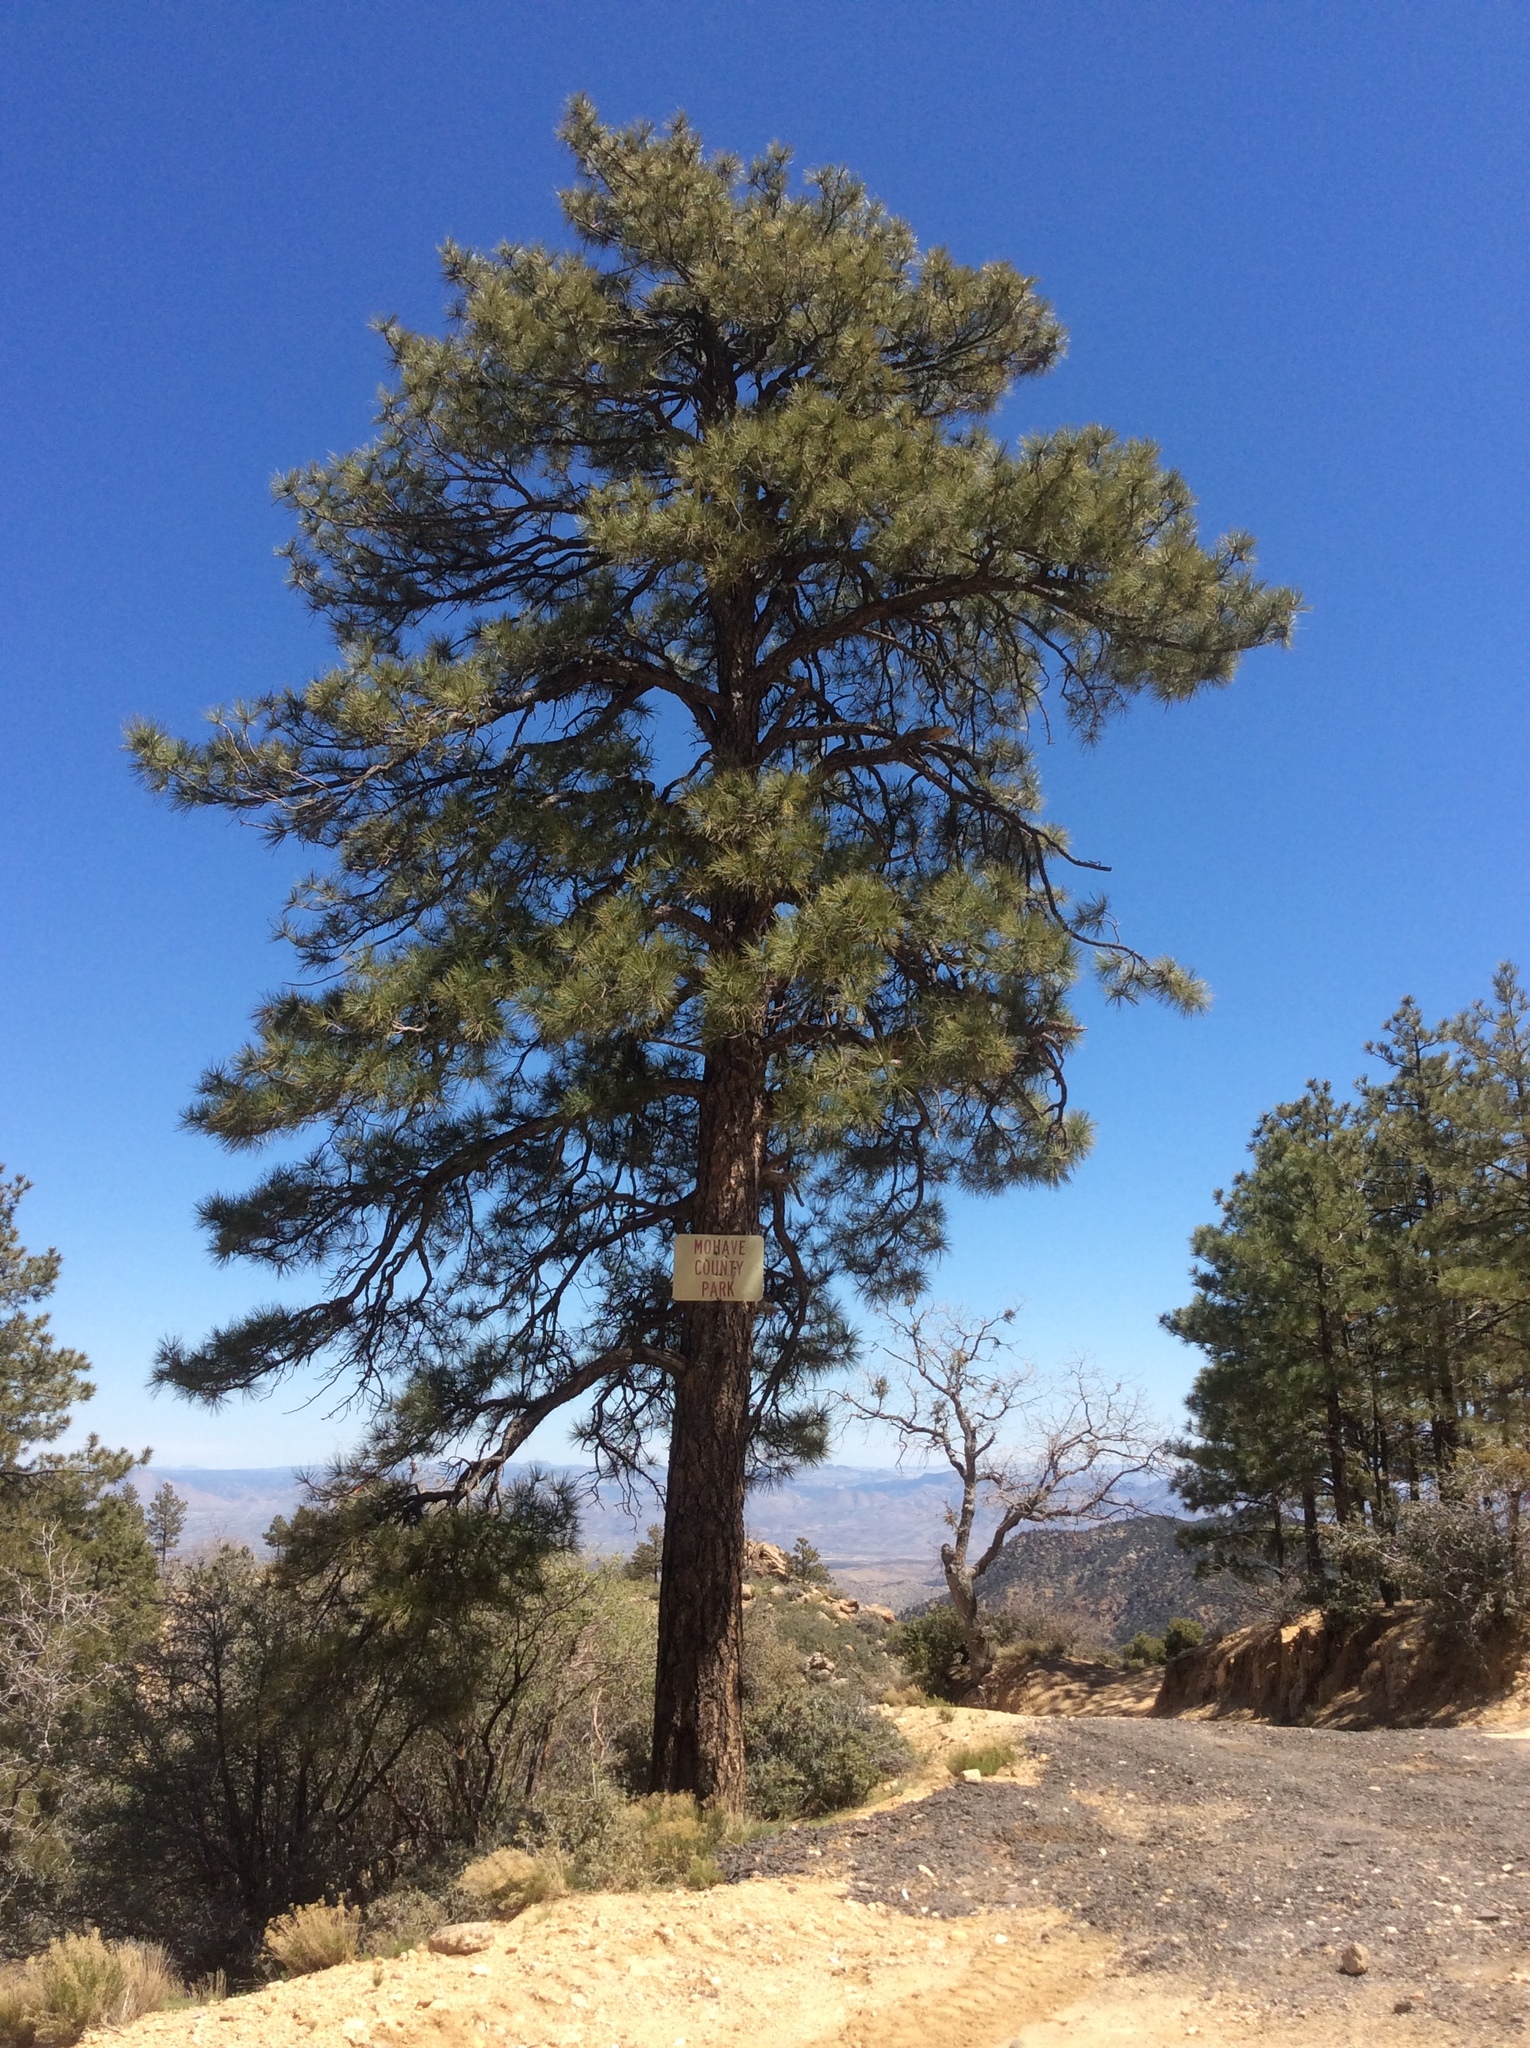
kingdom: Plantae
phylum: Tracheophyta
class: Pinopsida
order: Pinales
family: Pinaceae
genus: Pinus
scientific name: Pinus ponderosa
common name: Western yellow-pine
